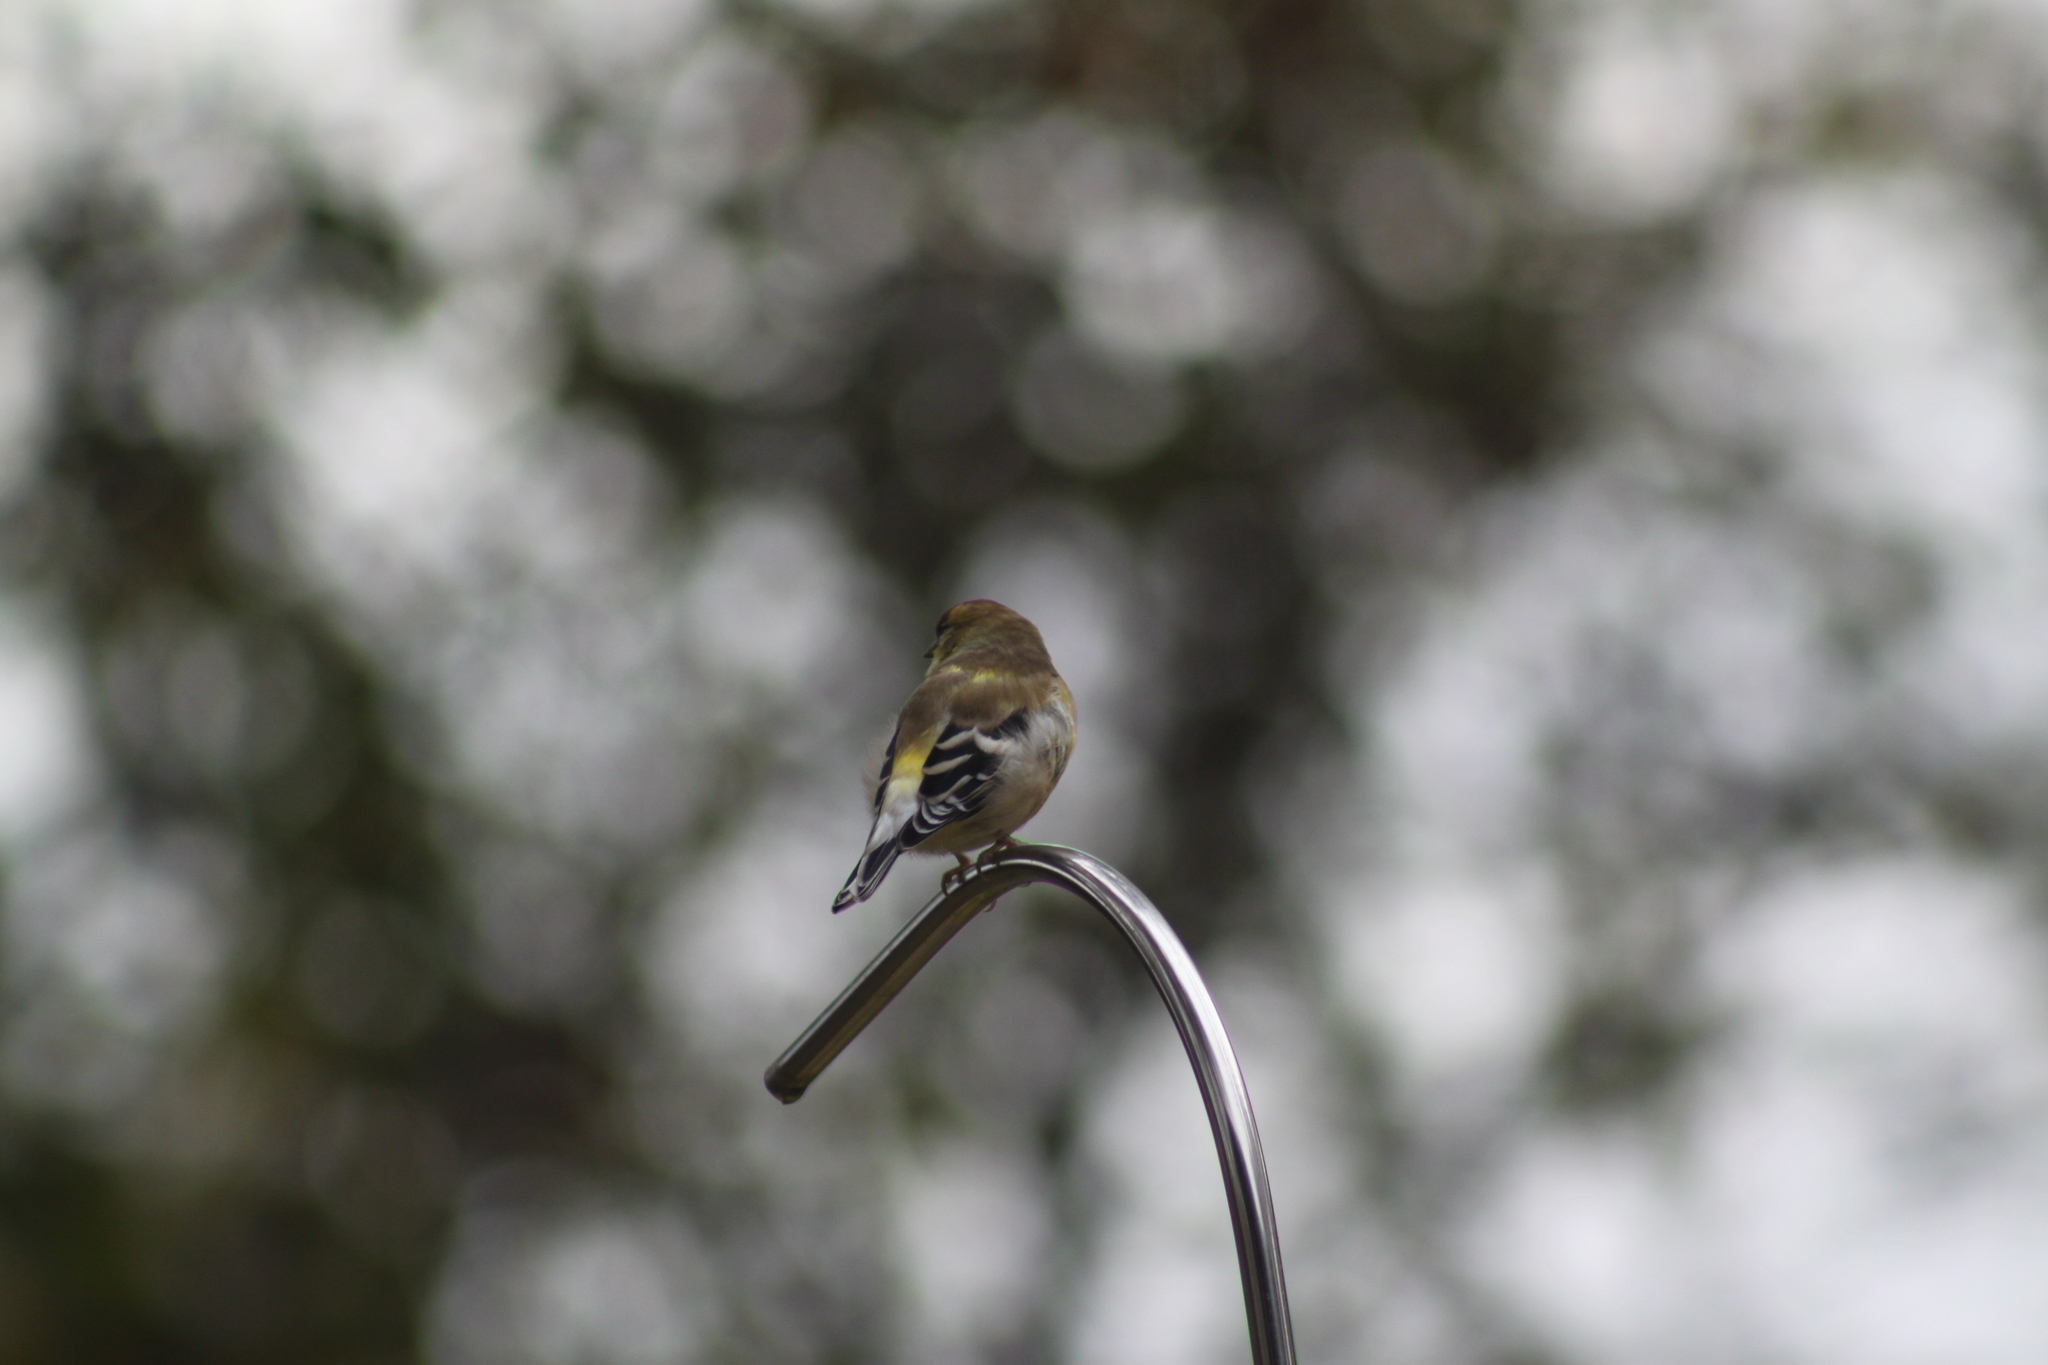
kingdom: Animalia
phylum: Chordata
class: Aves
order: Passeriformes
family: Fringillidae
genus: Spinus
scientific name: Spinus tristis
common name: American goldfinch
